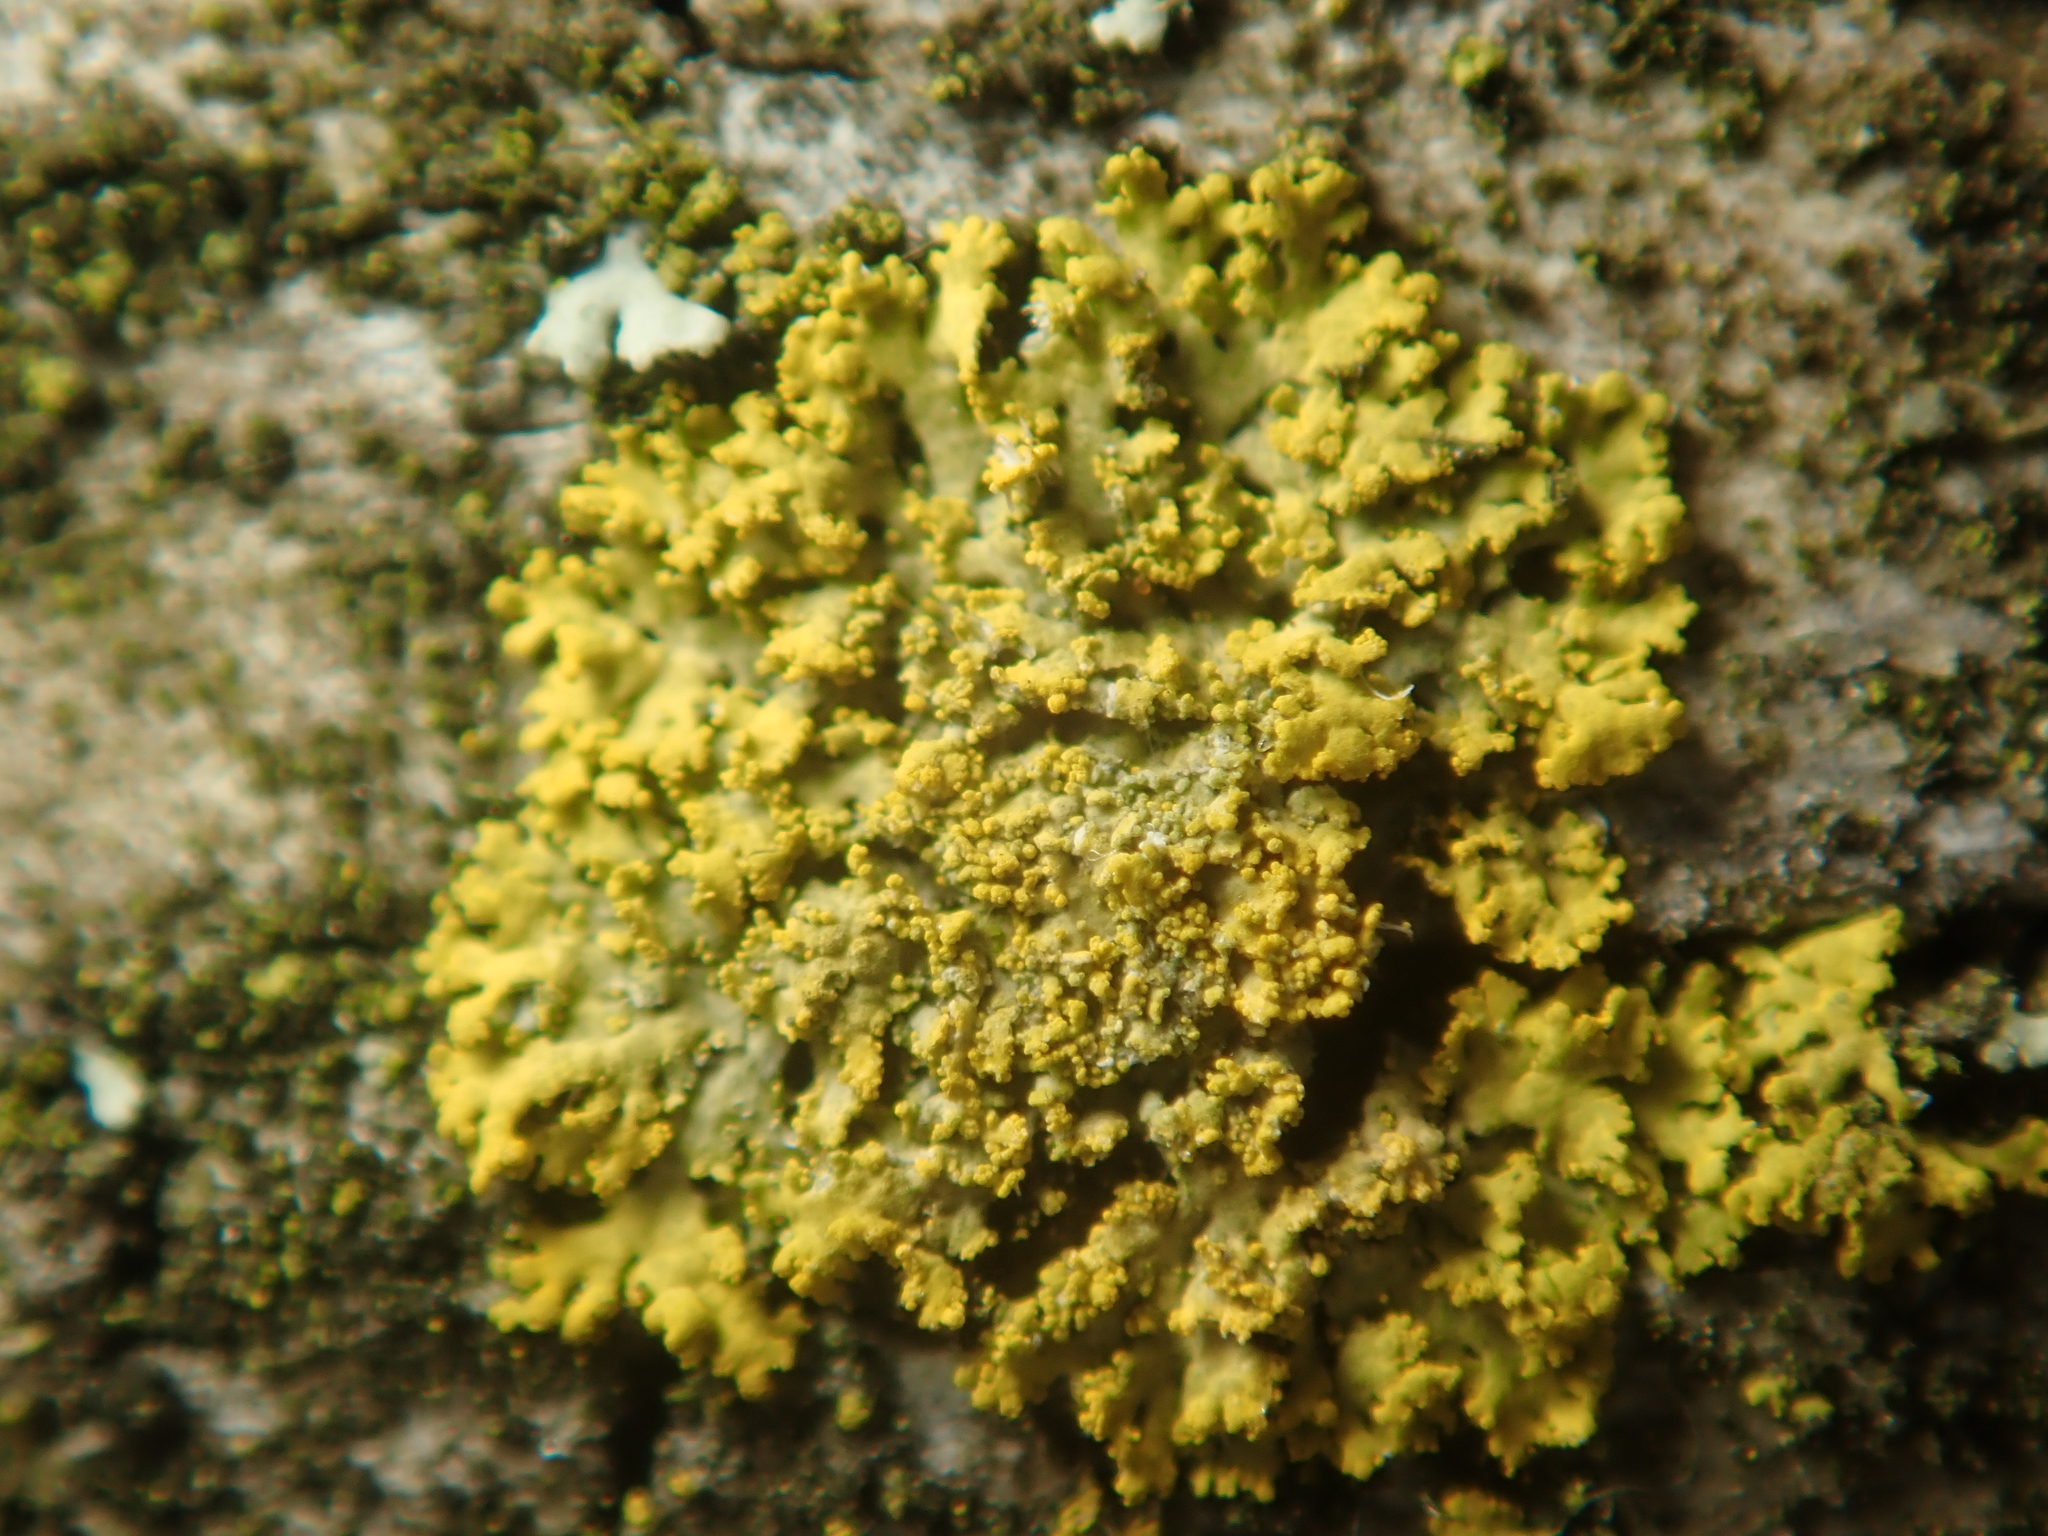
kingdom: Fungi
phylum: Ascomycota
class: Candelariomycetes
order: Candelariales
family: Candelariaceae
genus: Candelaria
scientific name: Candelaria concolor
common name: Candleflame lichen
